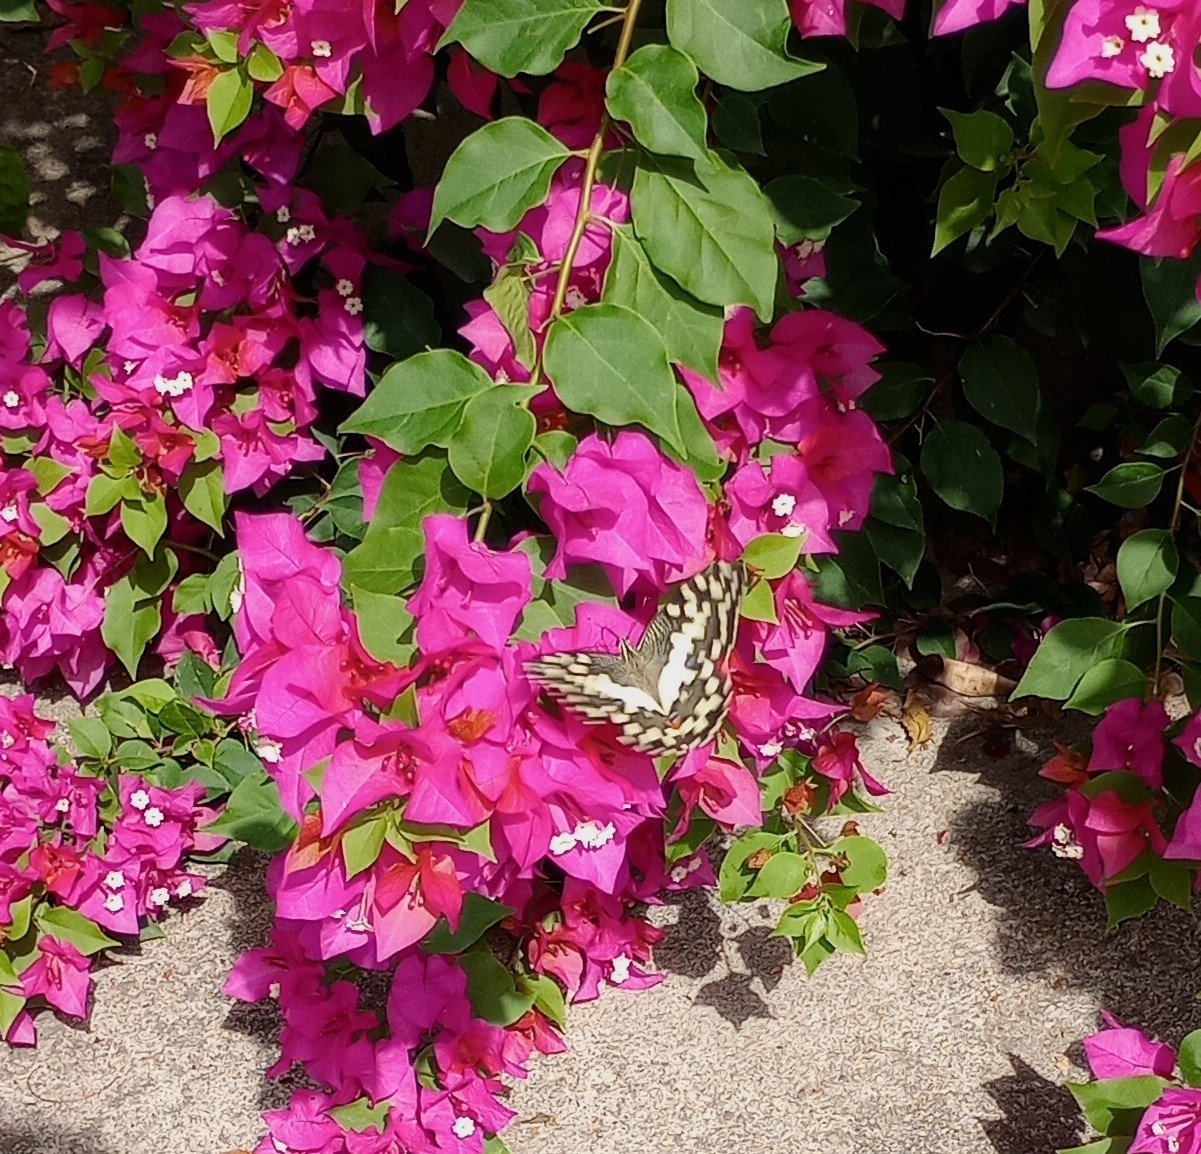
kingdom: Animalia
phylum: Arthropoda
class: Insecta
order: Lepidoptera
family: Papilionidae
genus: Papilio
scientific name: Papilio demoleus
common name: Lime butterfly
